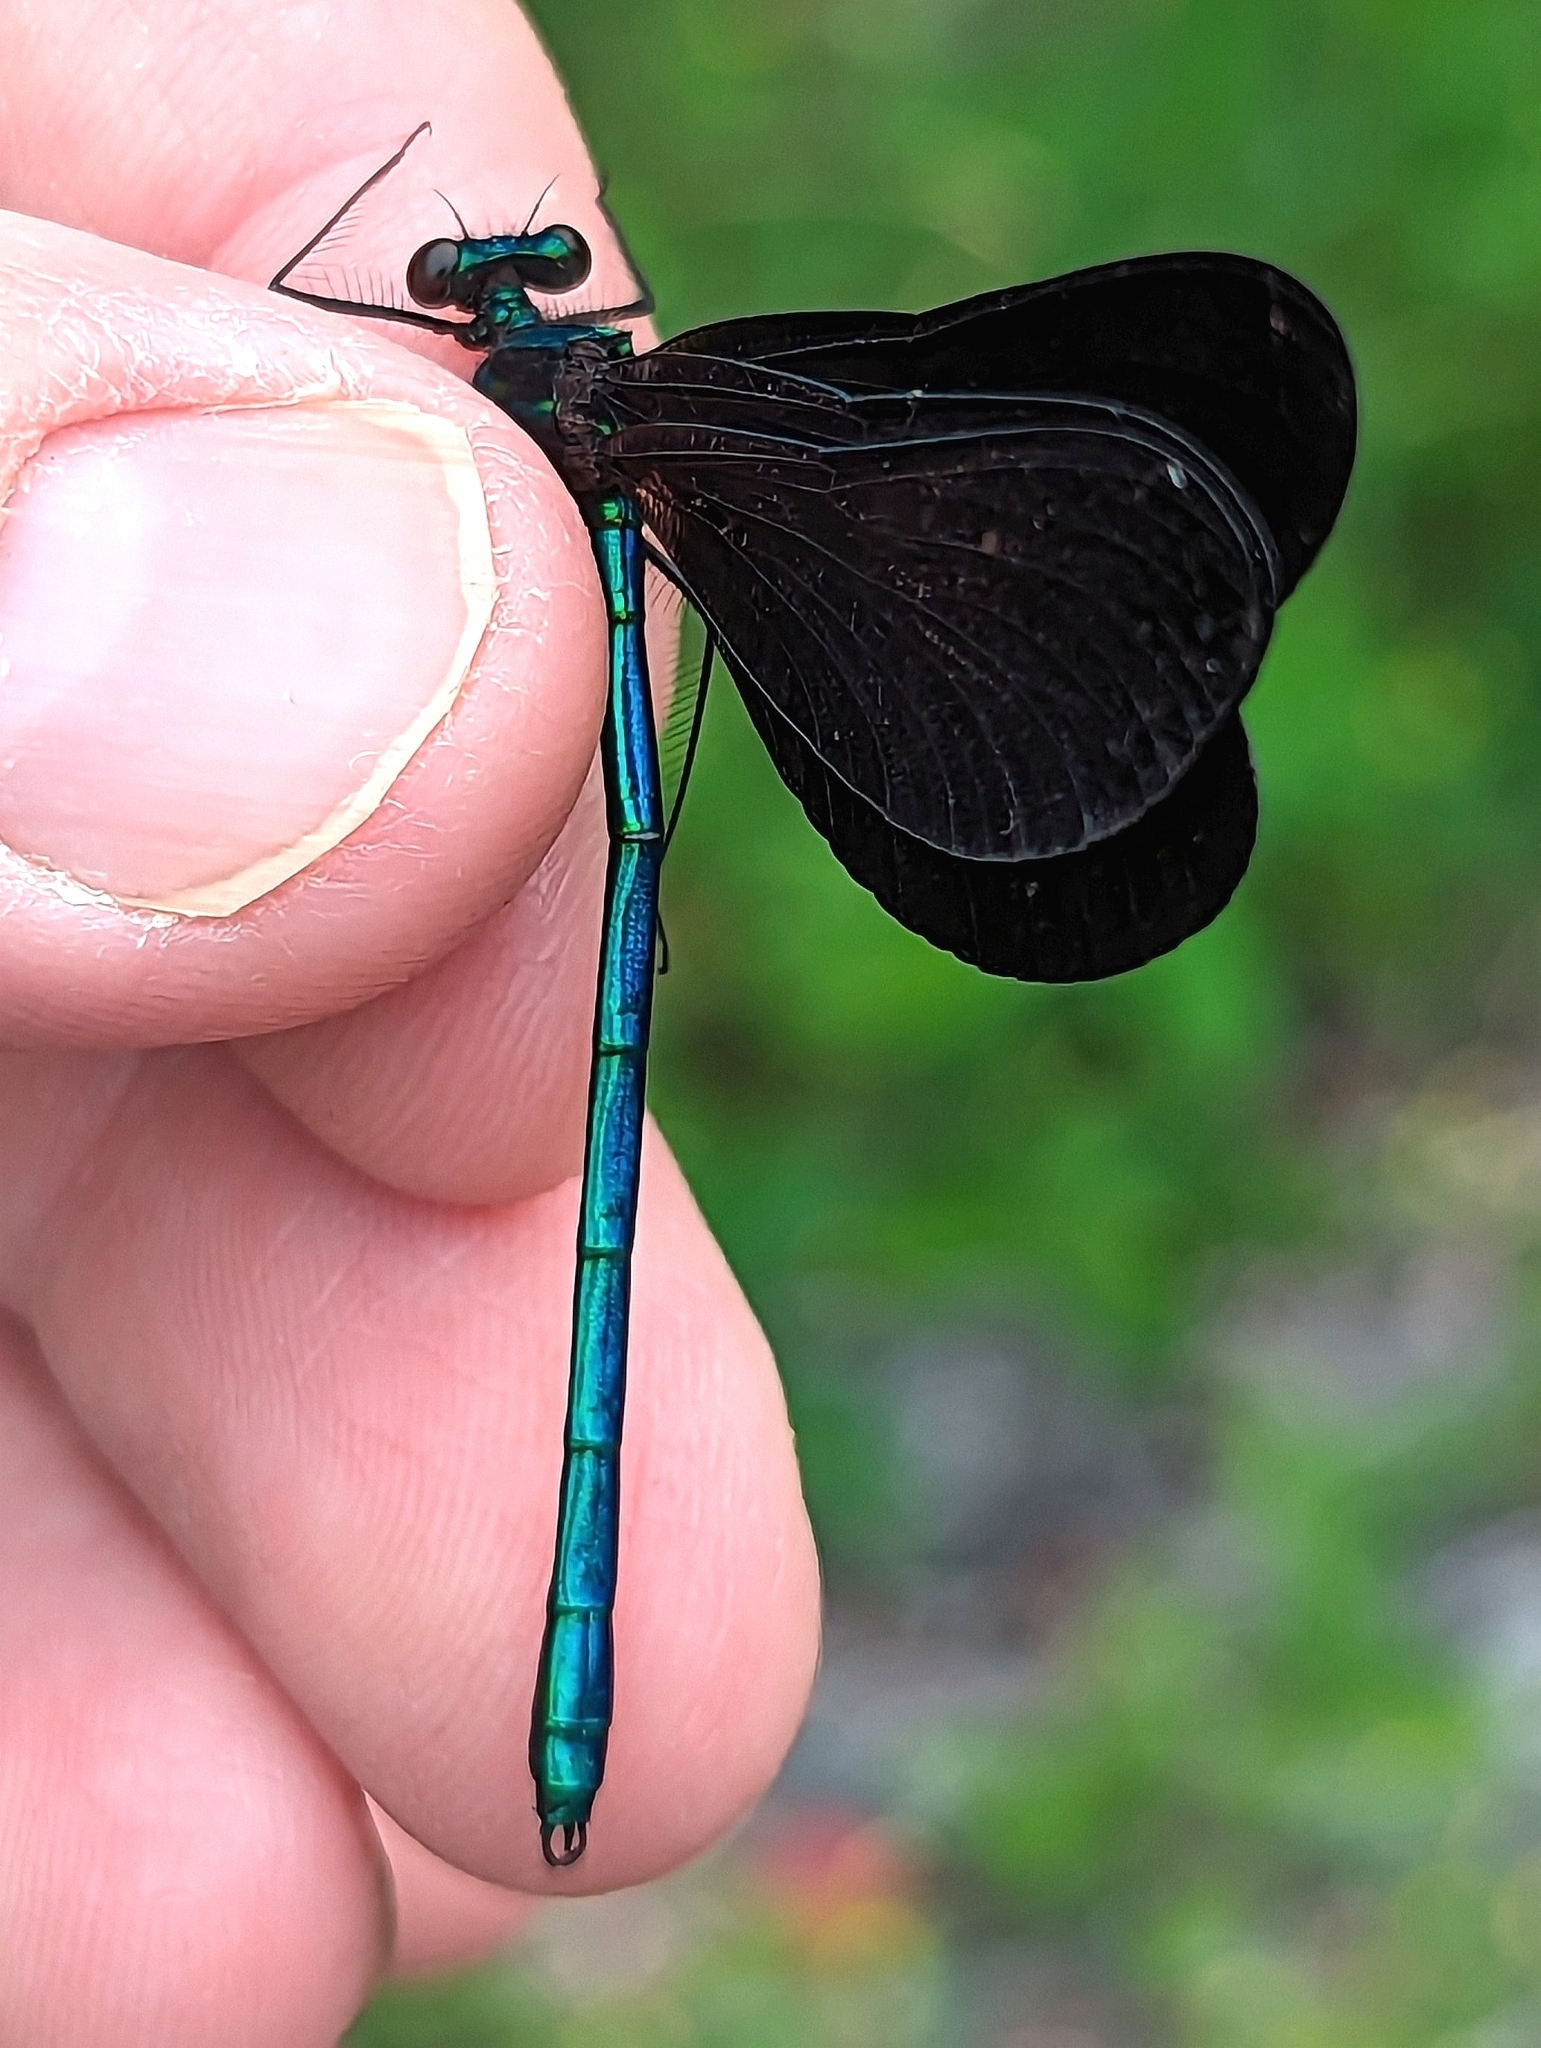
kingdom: Animalia
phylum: Arthropoda
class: Insecta
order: Odonata
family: Calopterygidae
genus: Calopteryx
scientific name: Calopteryx maculata
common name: Ebony jewelwing
